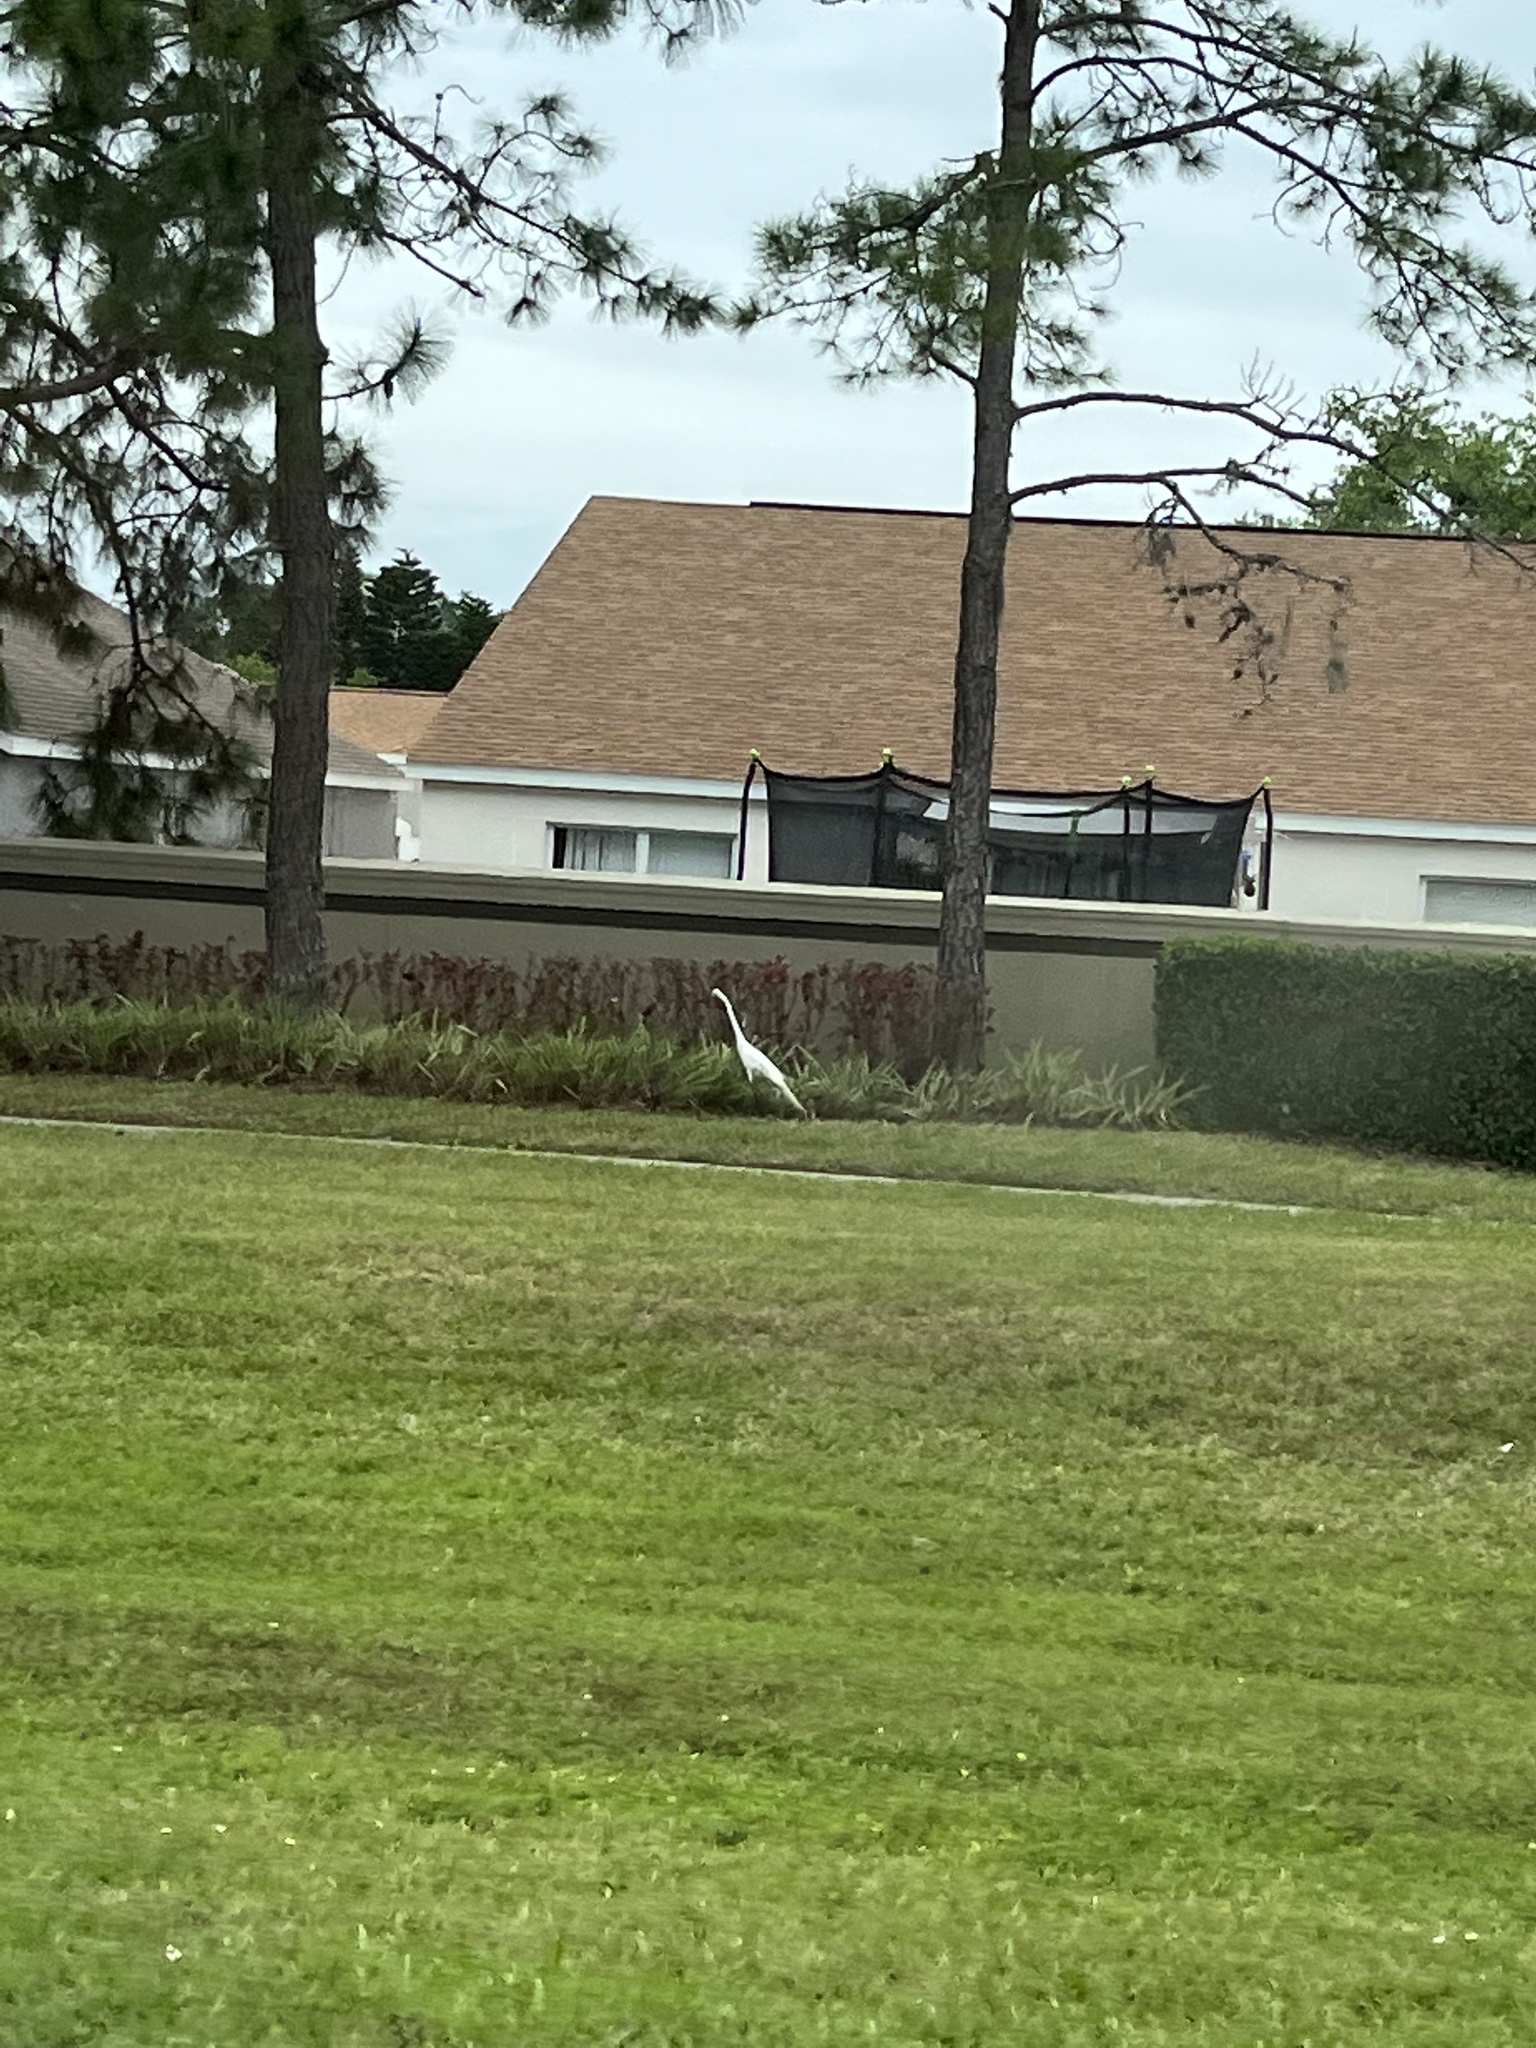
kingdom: Animalia
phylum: Chordata
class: Aves
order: Pelecaniformes
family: Ardeidae
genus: Ardea
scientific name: Ardea alba
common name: Great egret
